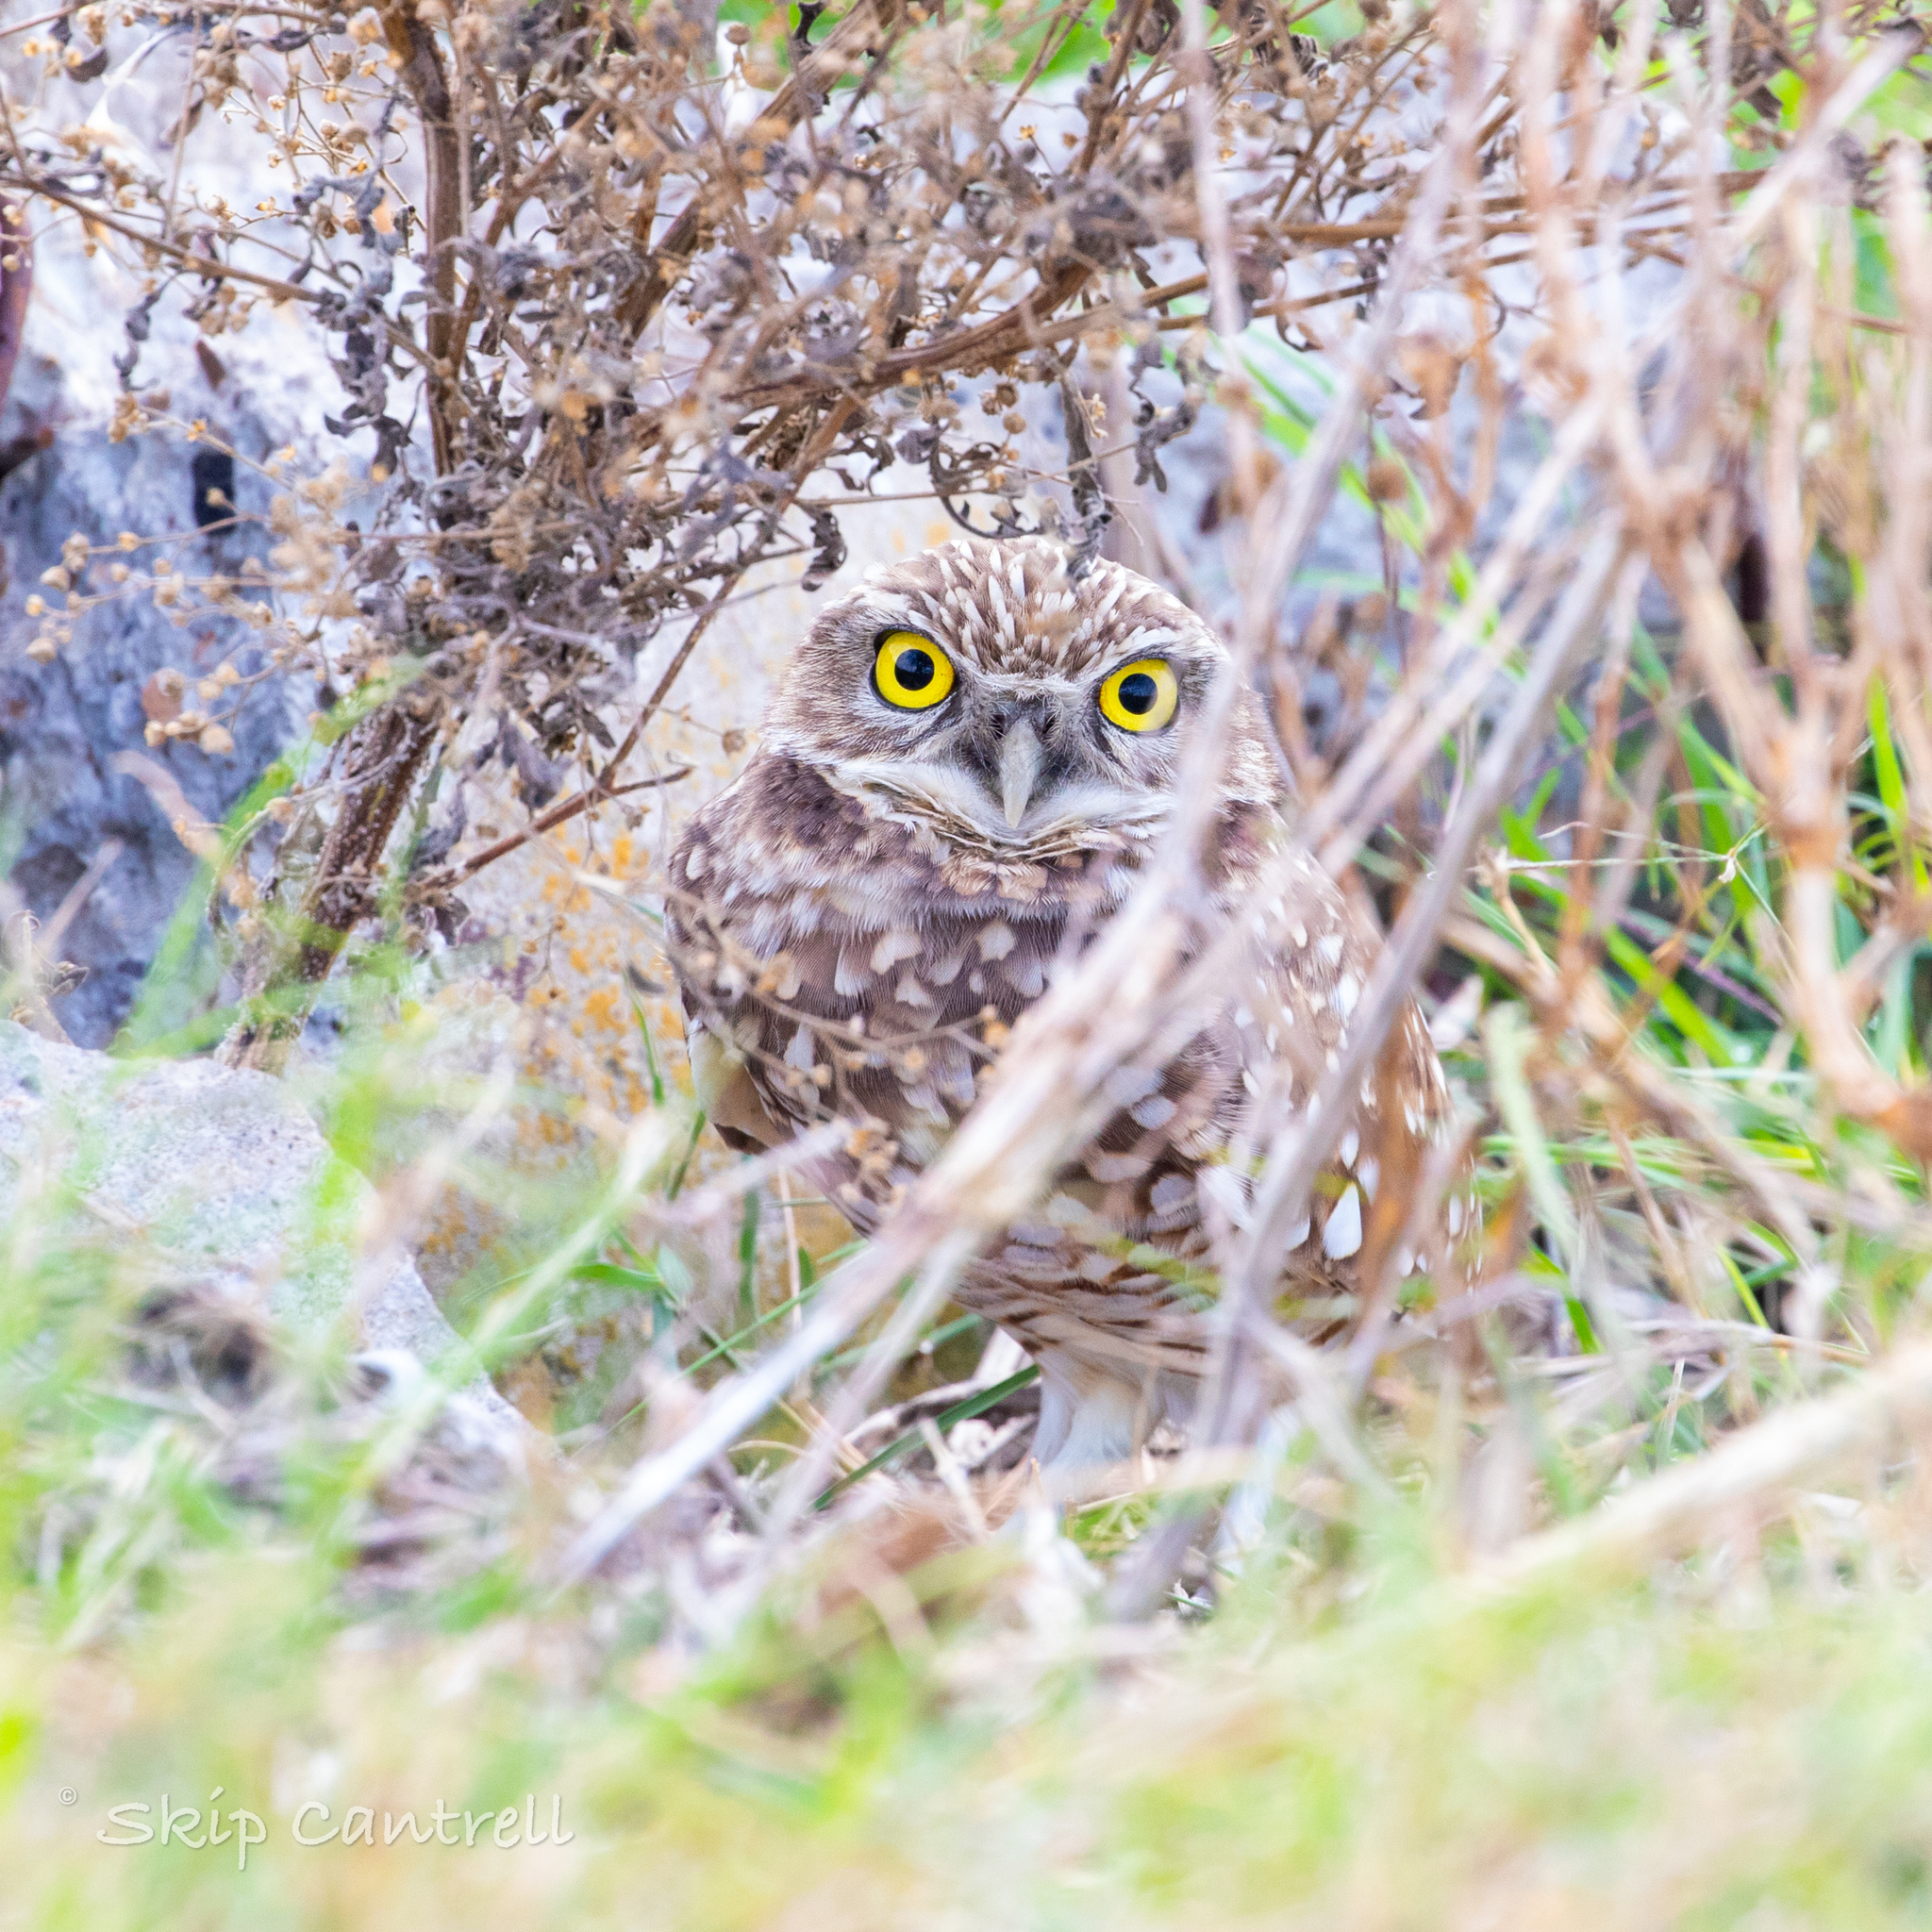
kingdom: Animalia
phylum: Chordata
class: Aves
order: Strigiformes
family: Strigidae
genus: Athene
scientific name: Athene cunicularia
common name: Burrowing owl
